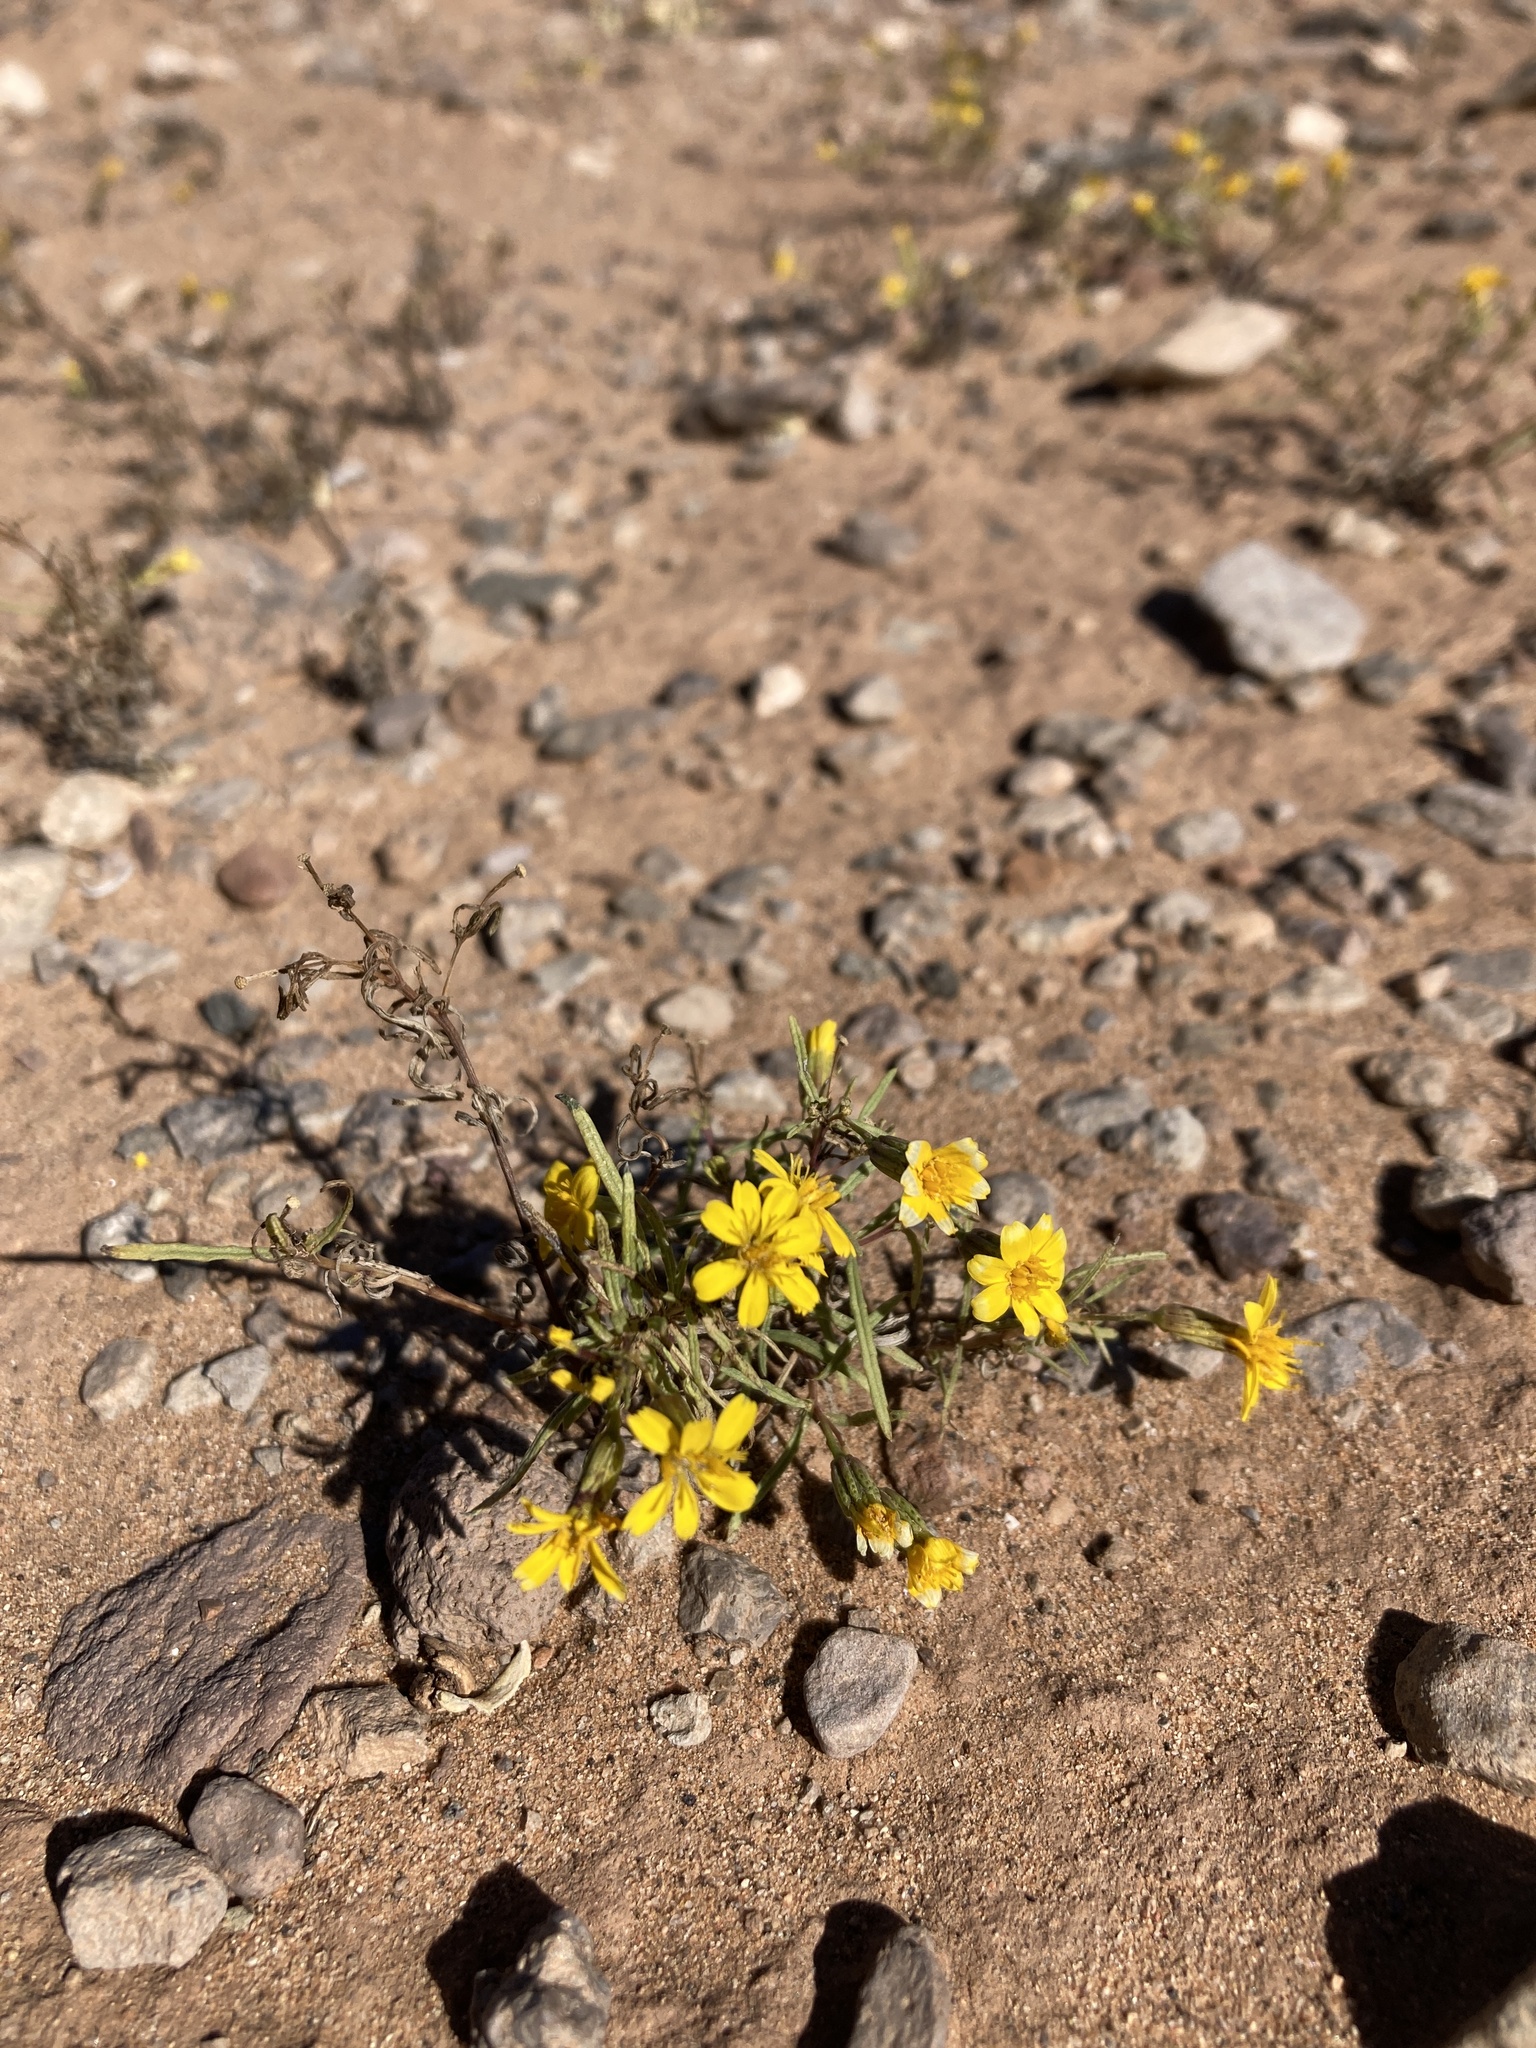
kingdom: Plantae
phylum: Tracheophyta
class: Magnoliopsida
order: Asterales
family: Asteraceae
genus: Pectis
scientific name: Pectis angustifolia
